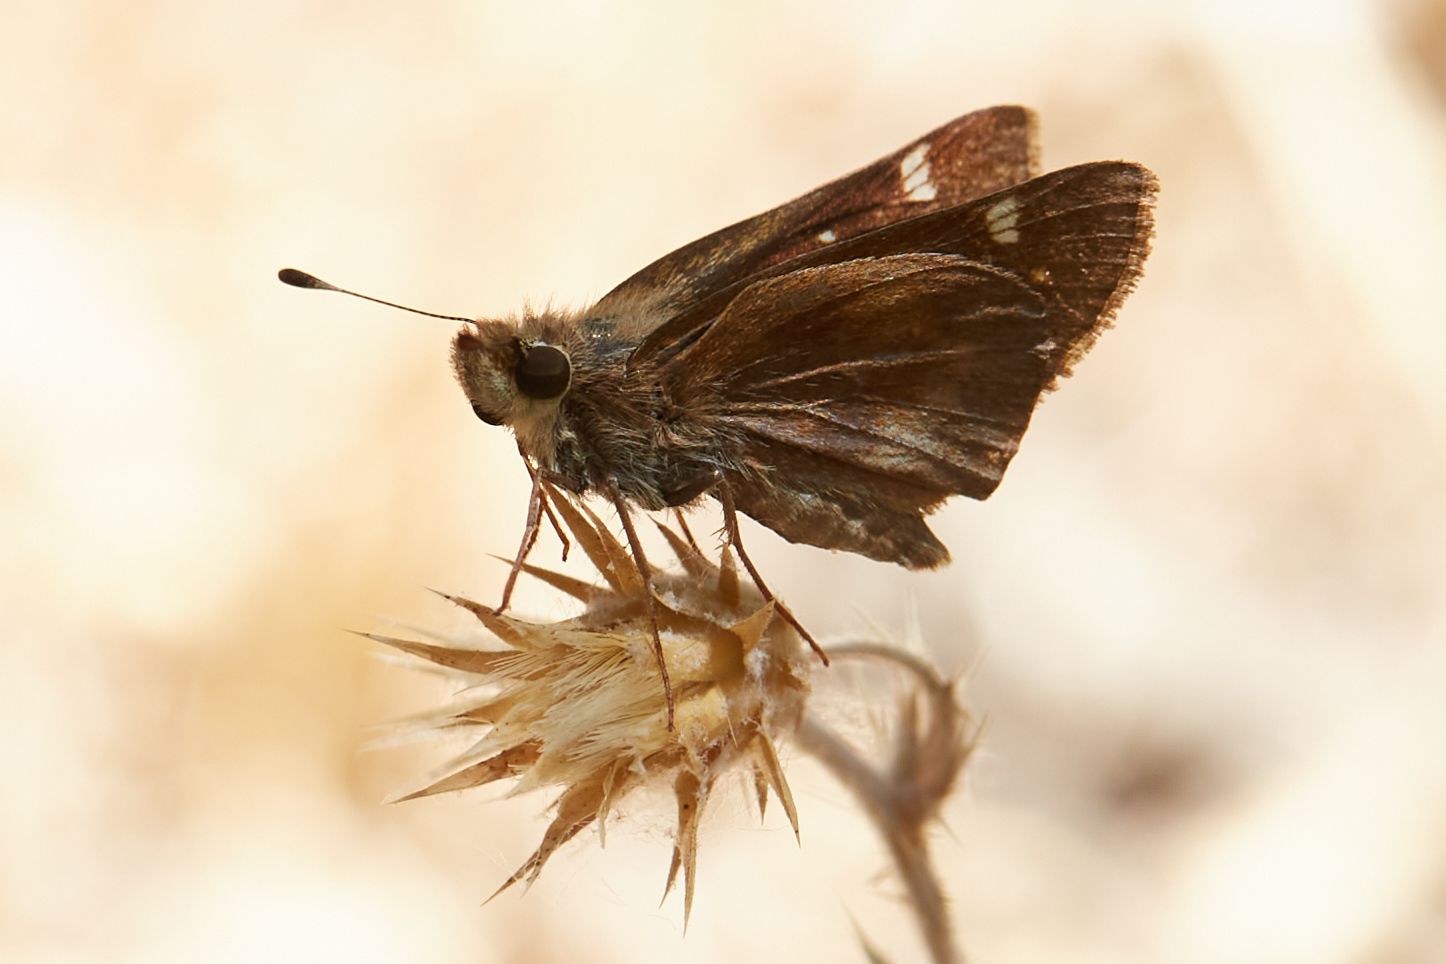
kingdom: Animalia
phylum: Arthropoda
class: Insecta
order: Lepidoptera
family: Hesperiidae
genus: Lon
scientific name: Lon melane
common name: Umber skipper
